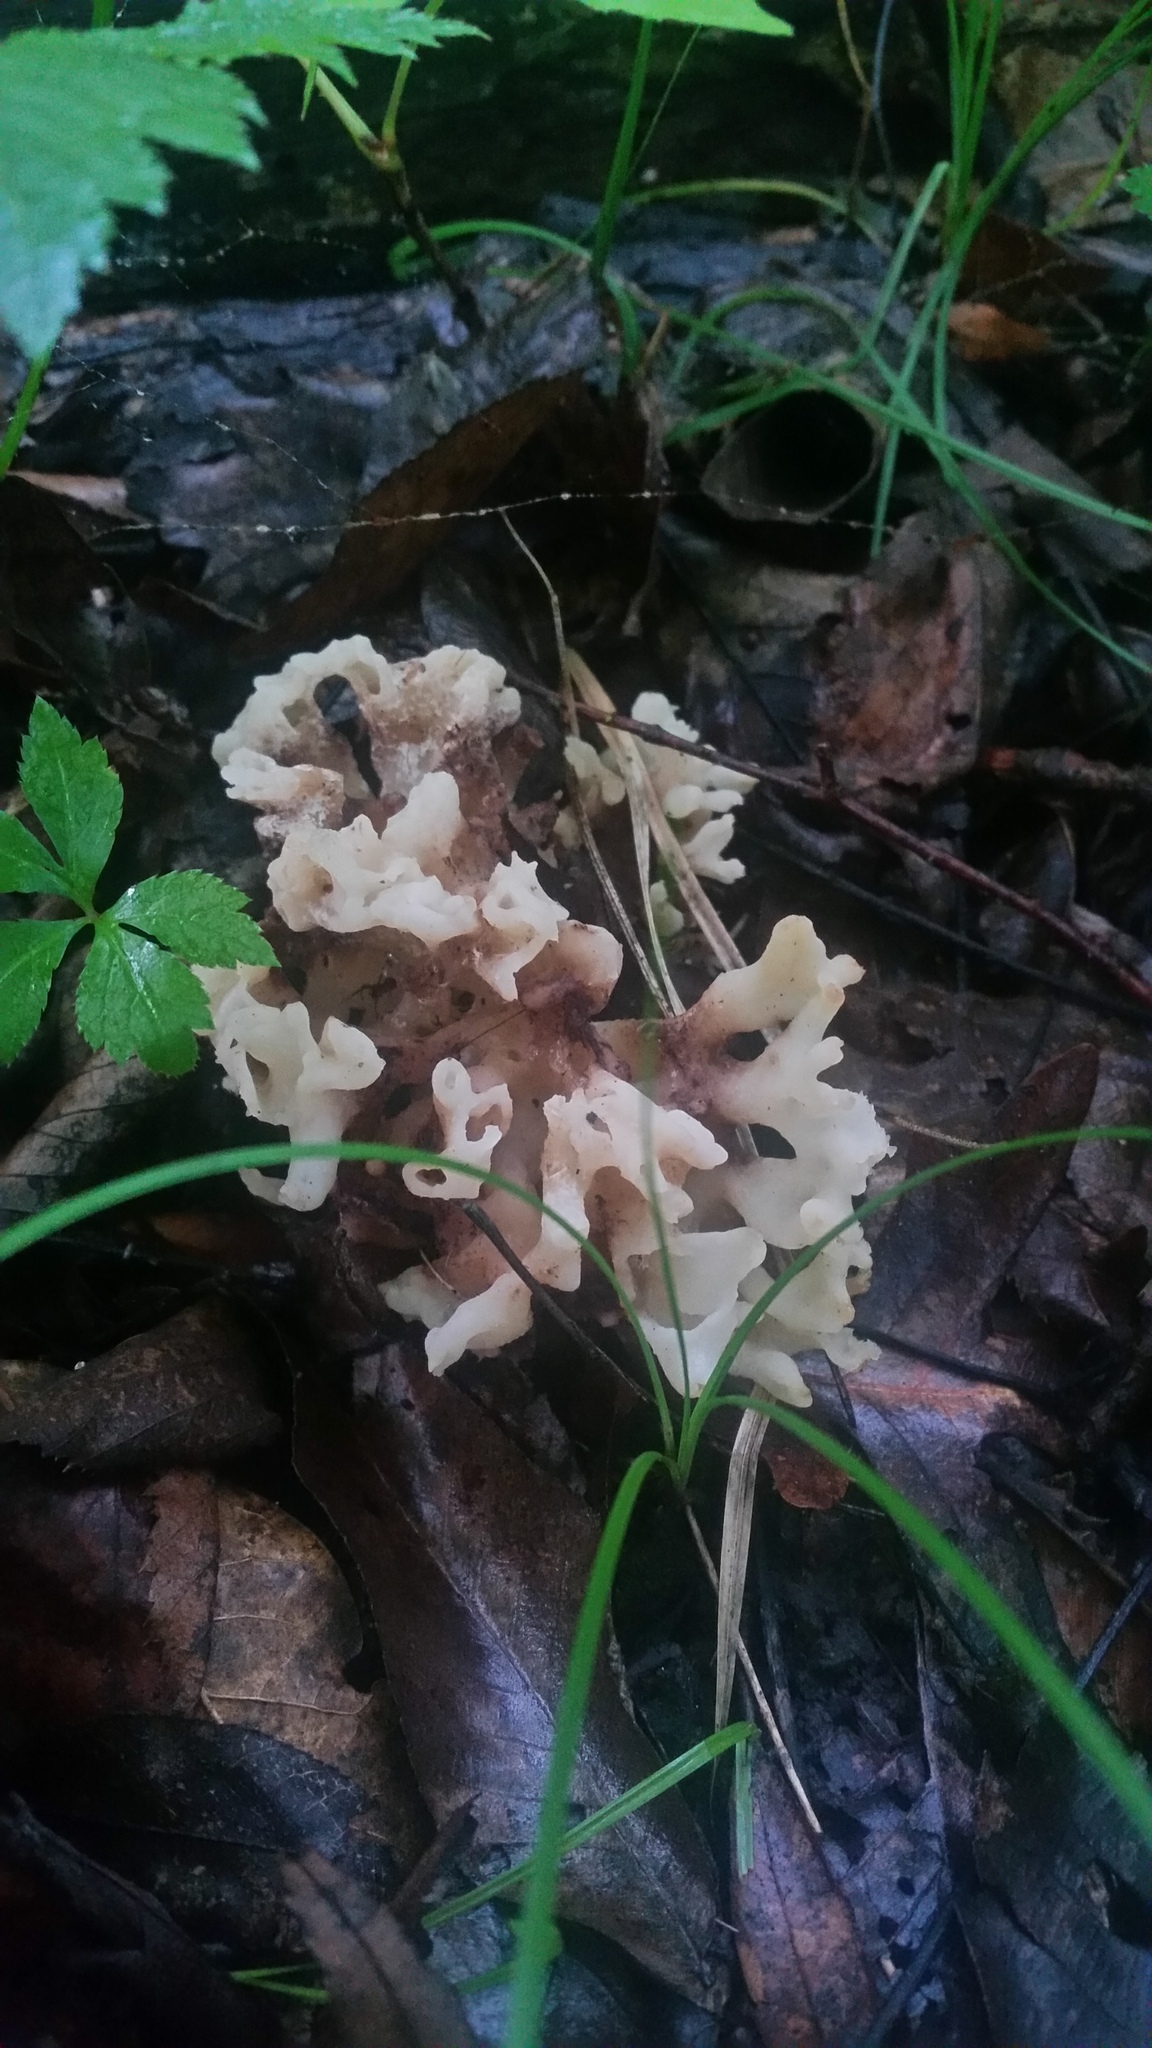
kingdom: Fungi
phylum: Basidiomycota
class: Agaricomycetes
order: Sebacinales
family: Sebacinaceae
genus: Sebacina
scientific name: Sebacina sparassoidea
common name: White coral jelly fungus
